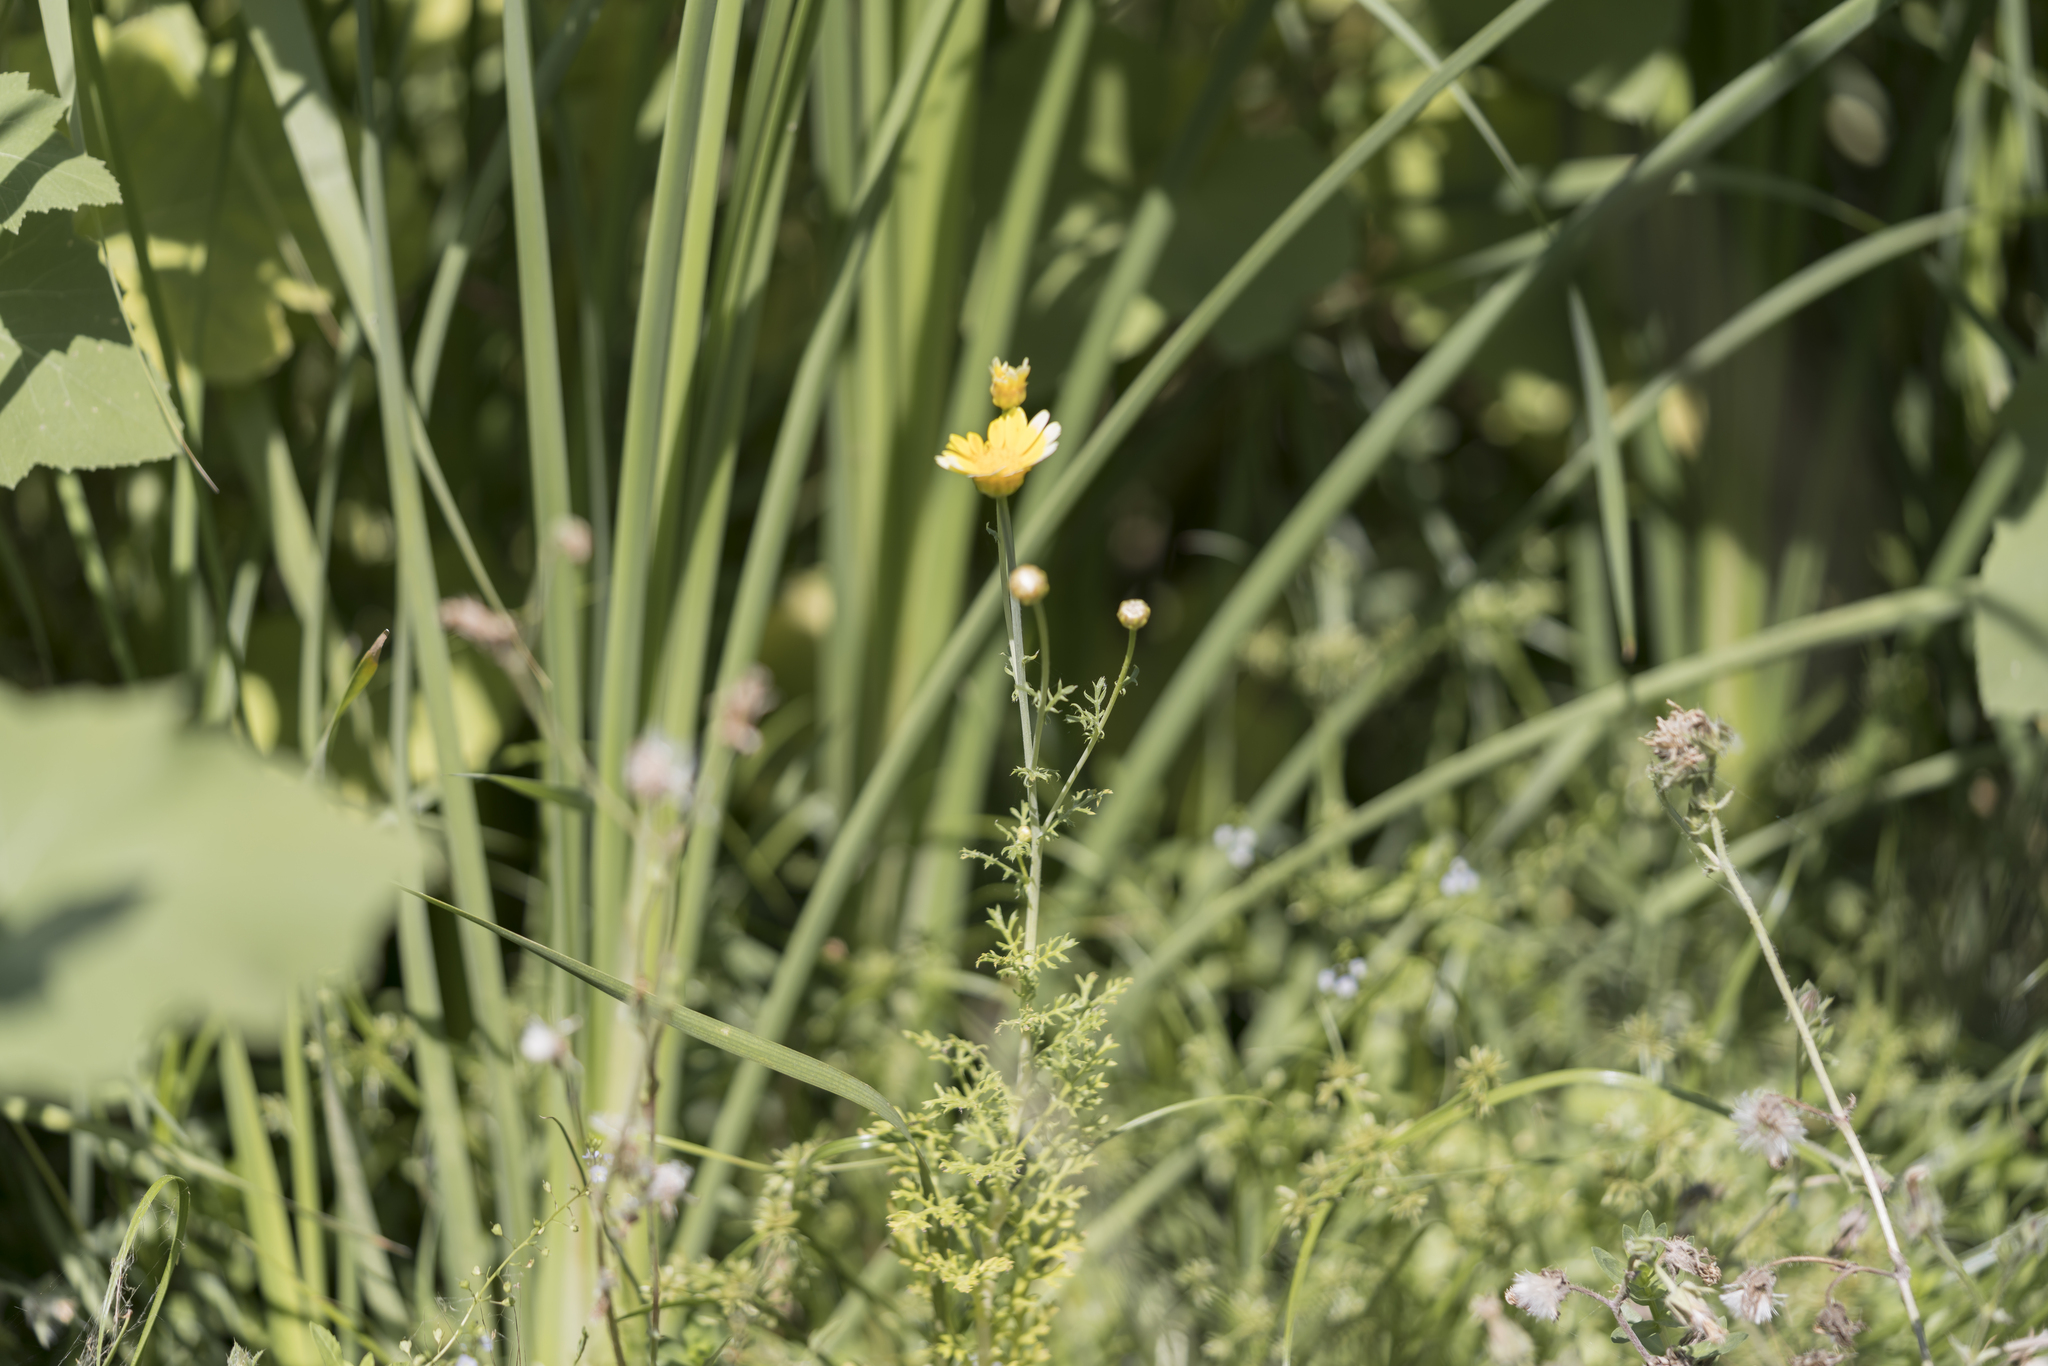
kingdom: Plantae
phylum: Tracheophyta
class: Magnoliopsida
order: Asterales
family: Asteraceae
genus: Glebionis
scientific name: Glebionis coronaria
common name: Crowndaisy
